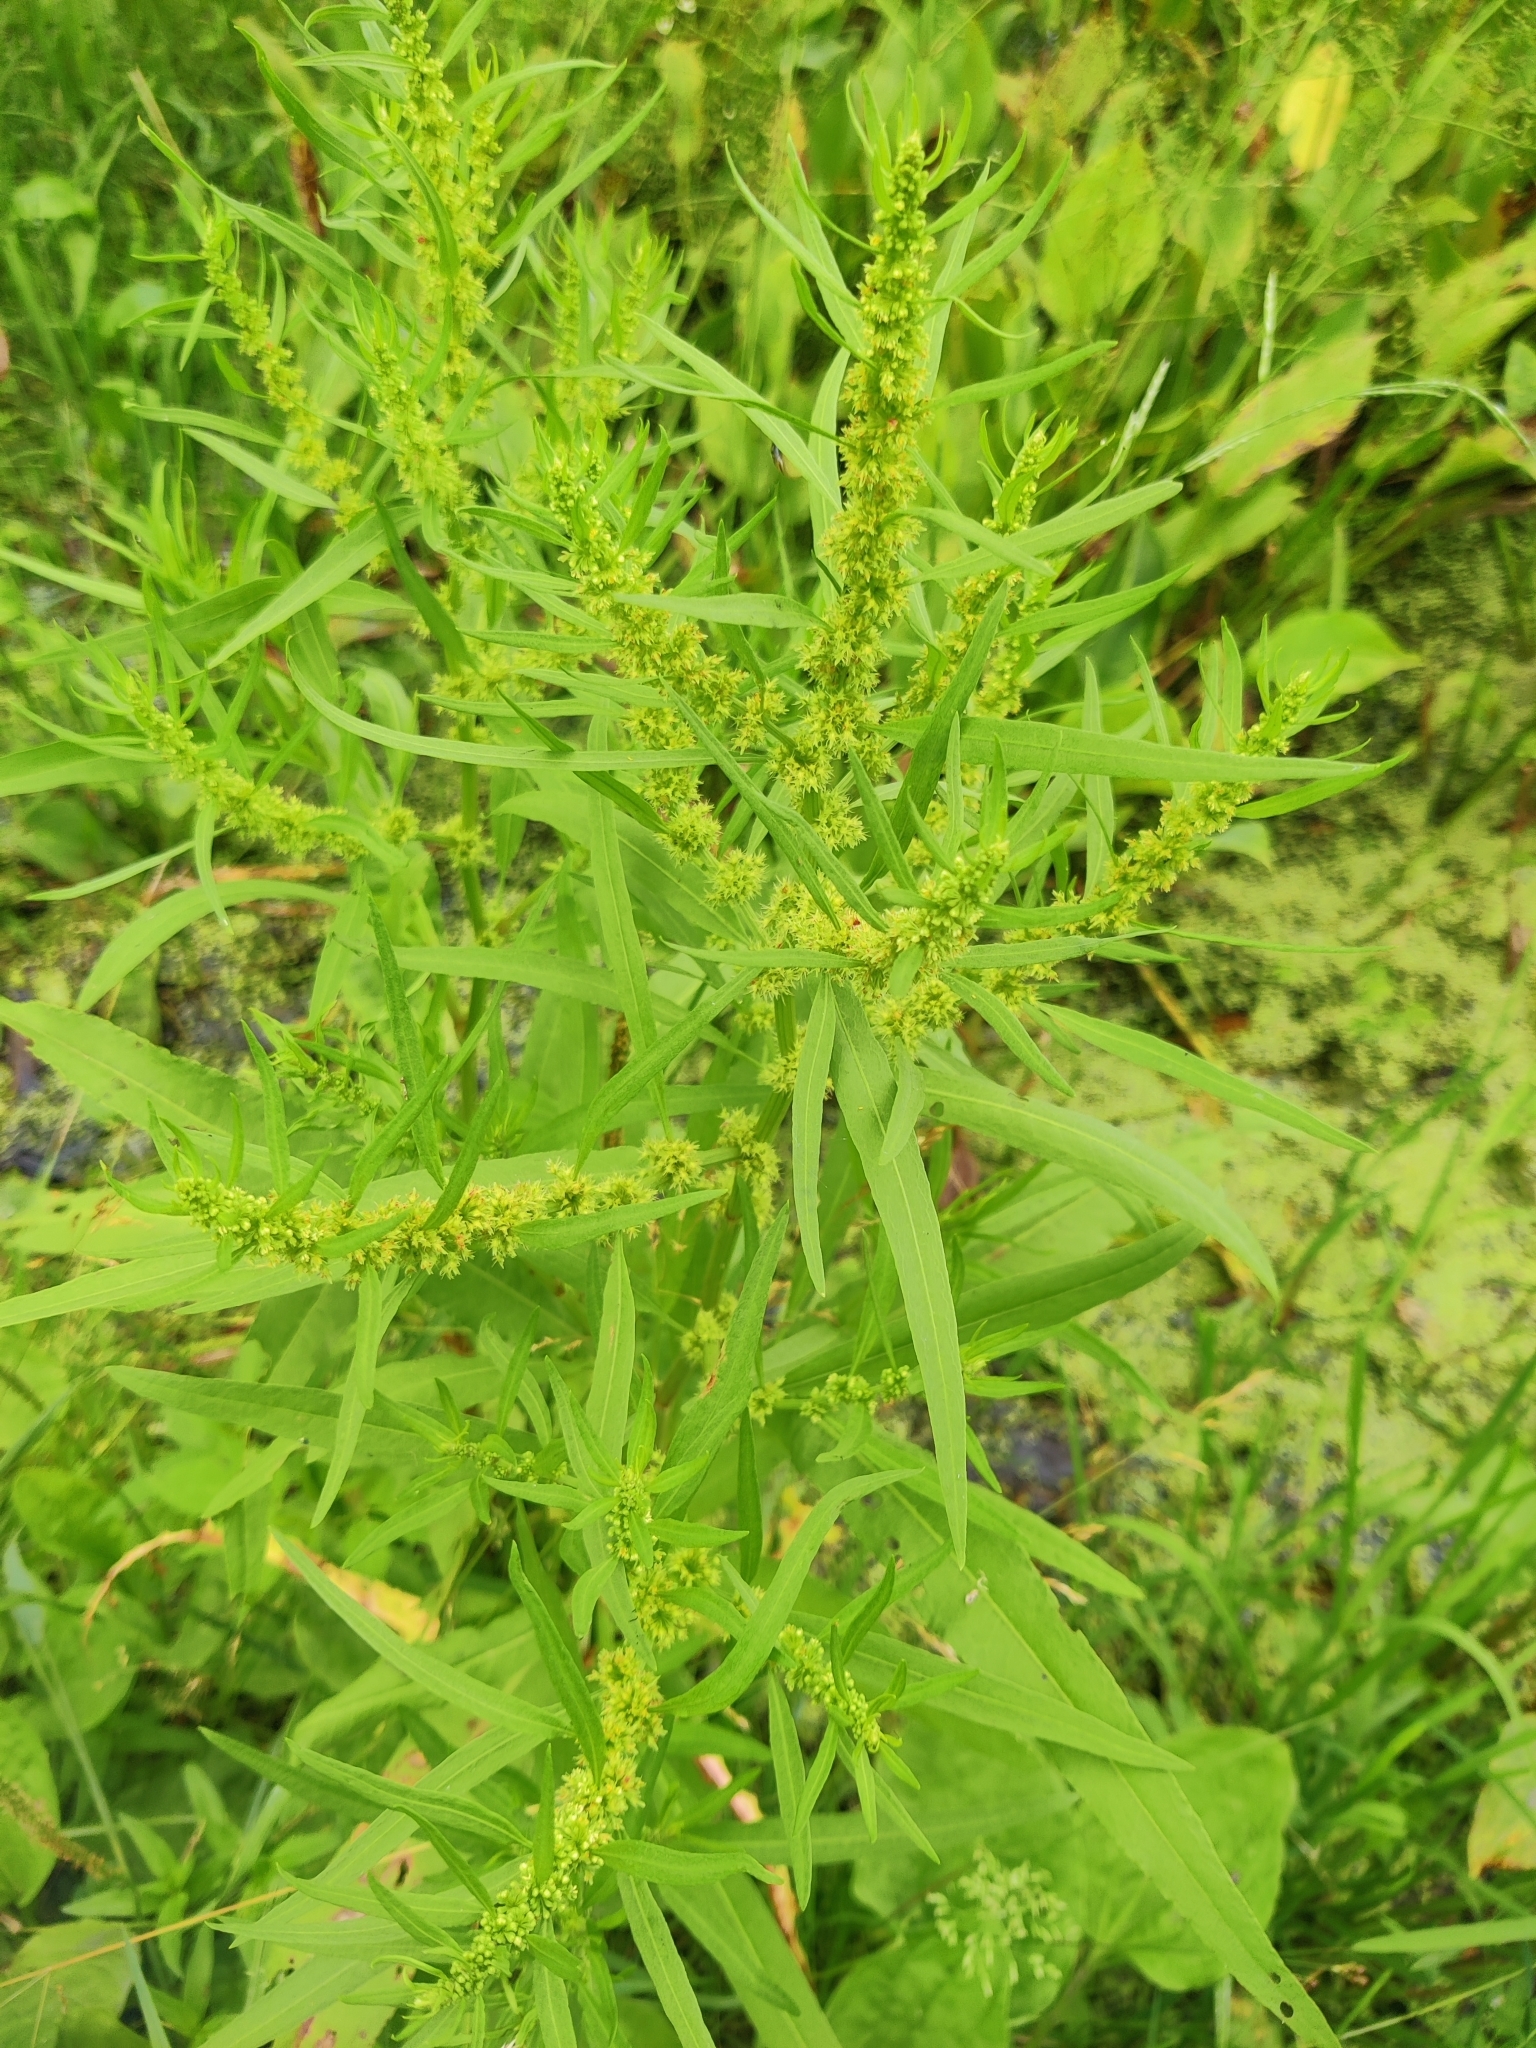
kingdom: Plantae
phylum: Tracheophyta
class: Magnoliopsida
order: Caryophyllales
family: Polygonaceae
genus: Rumex
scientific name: Rumex maritimus
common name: Golden dock
